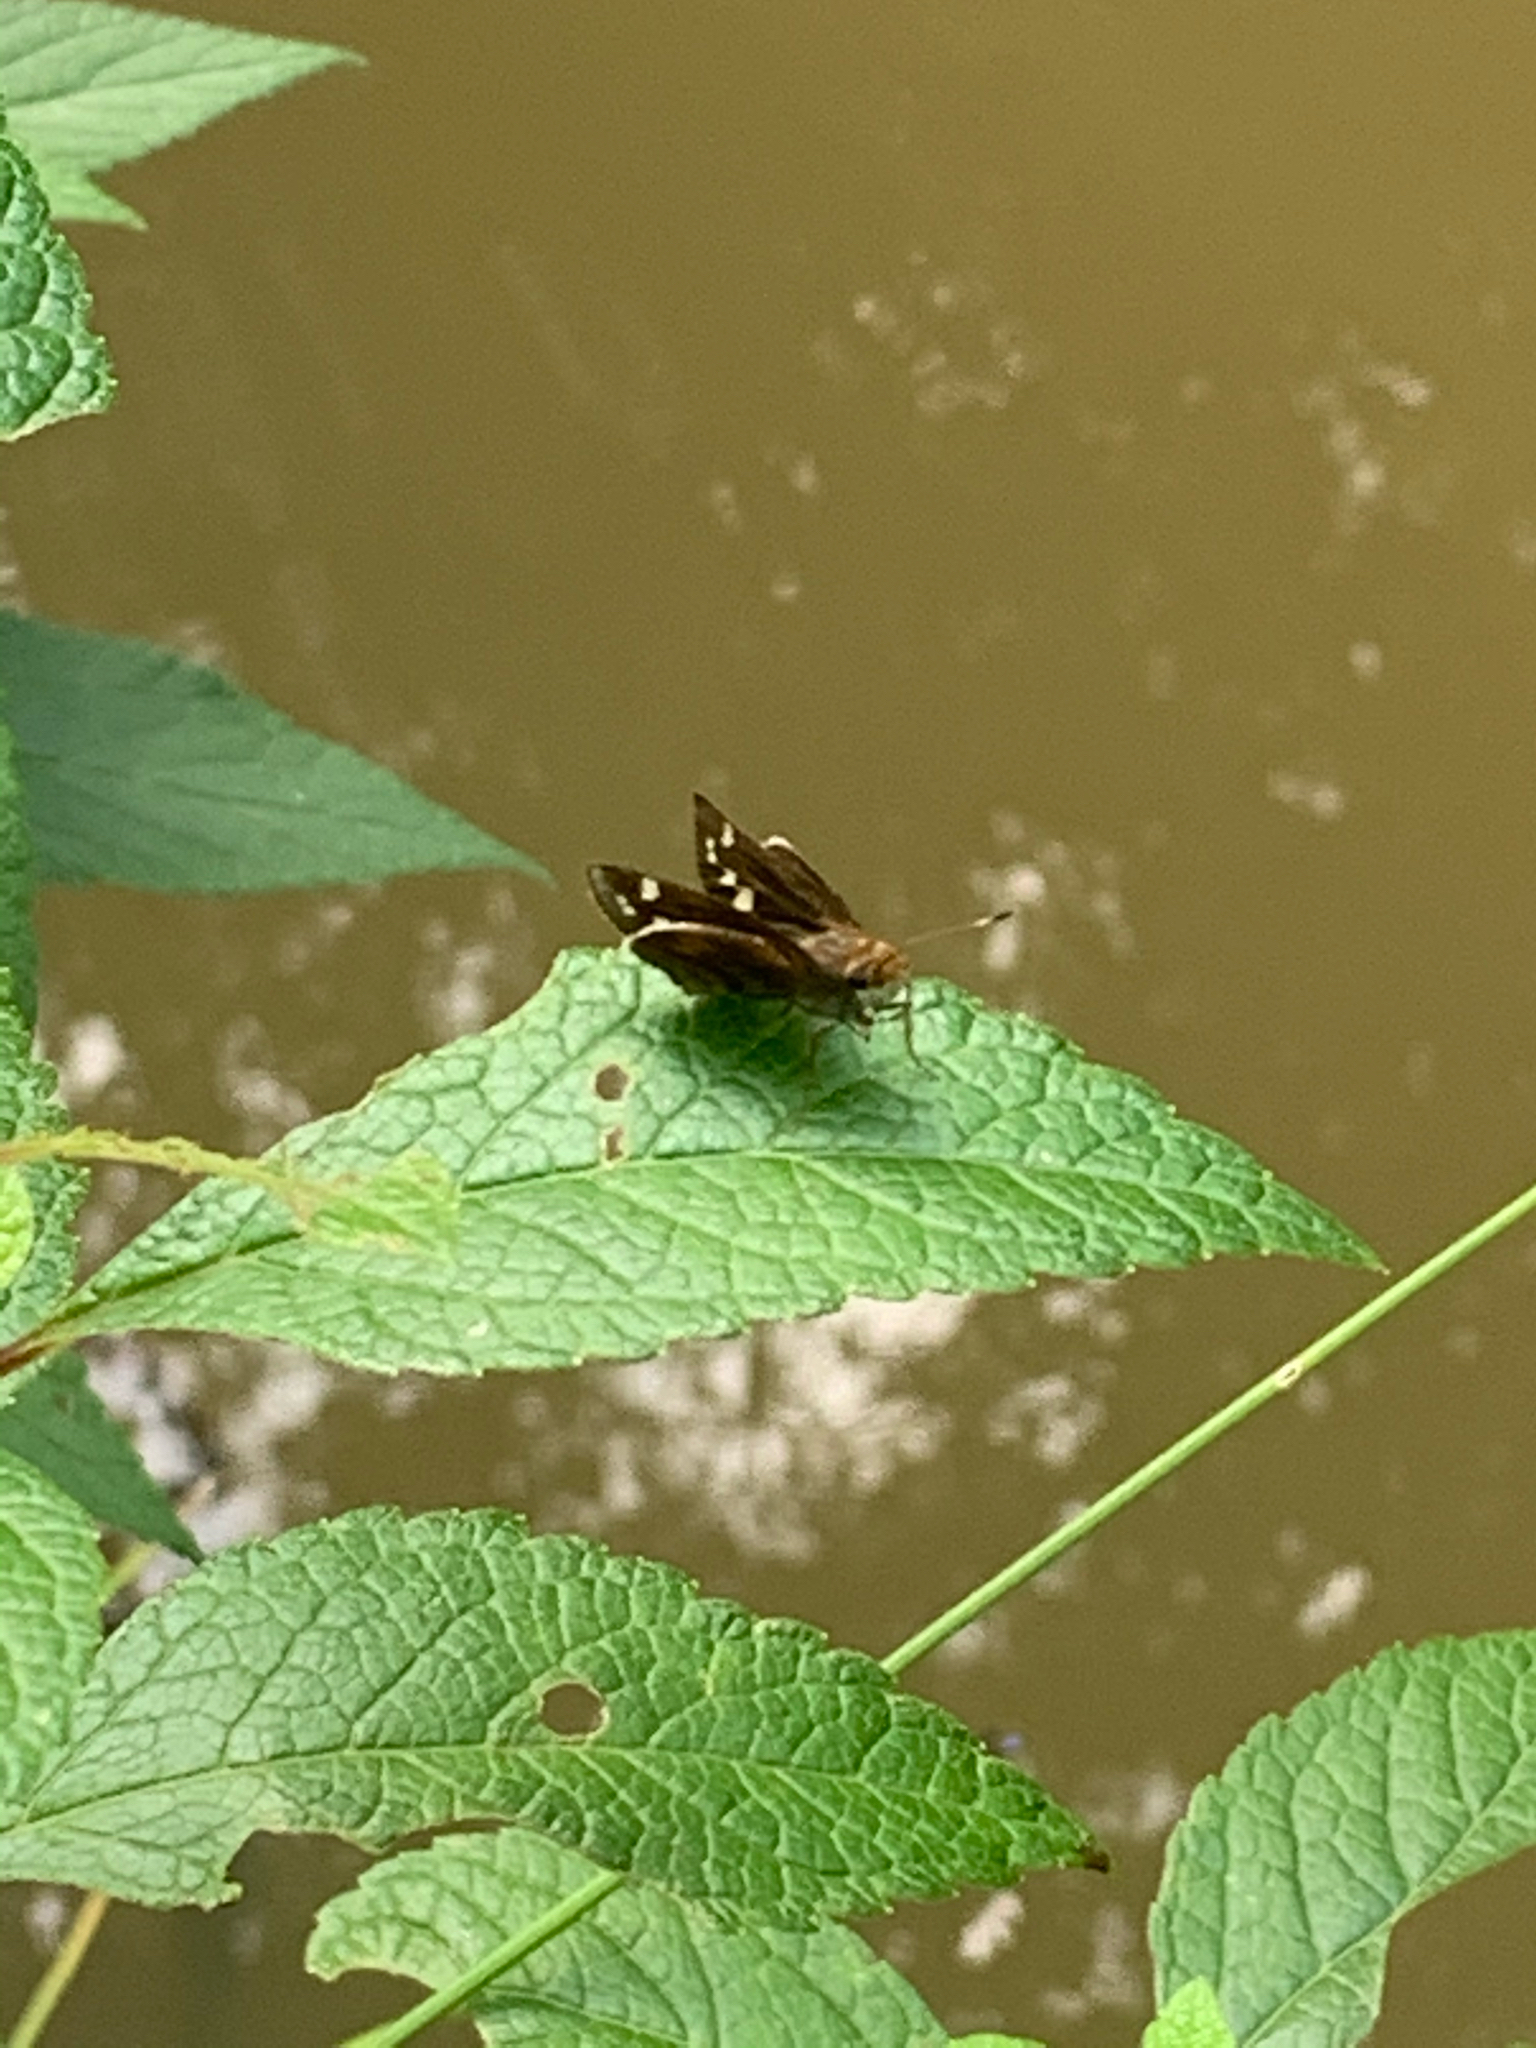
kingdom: Animalia
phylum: Arthropoda
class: Insecta
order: Lepidoptera
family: Hesperiidae
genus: Lon
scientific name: Lon zabulon
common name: Zabulon skipper
